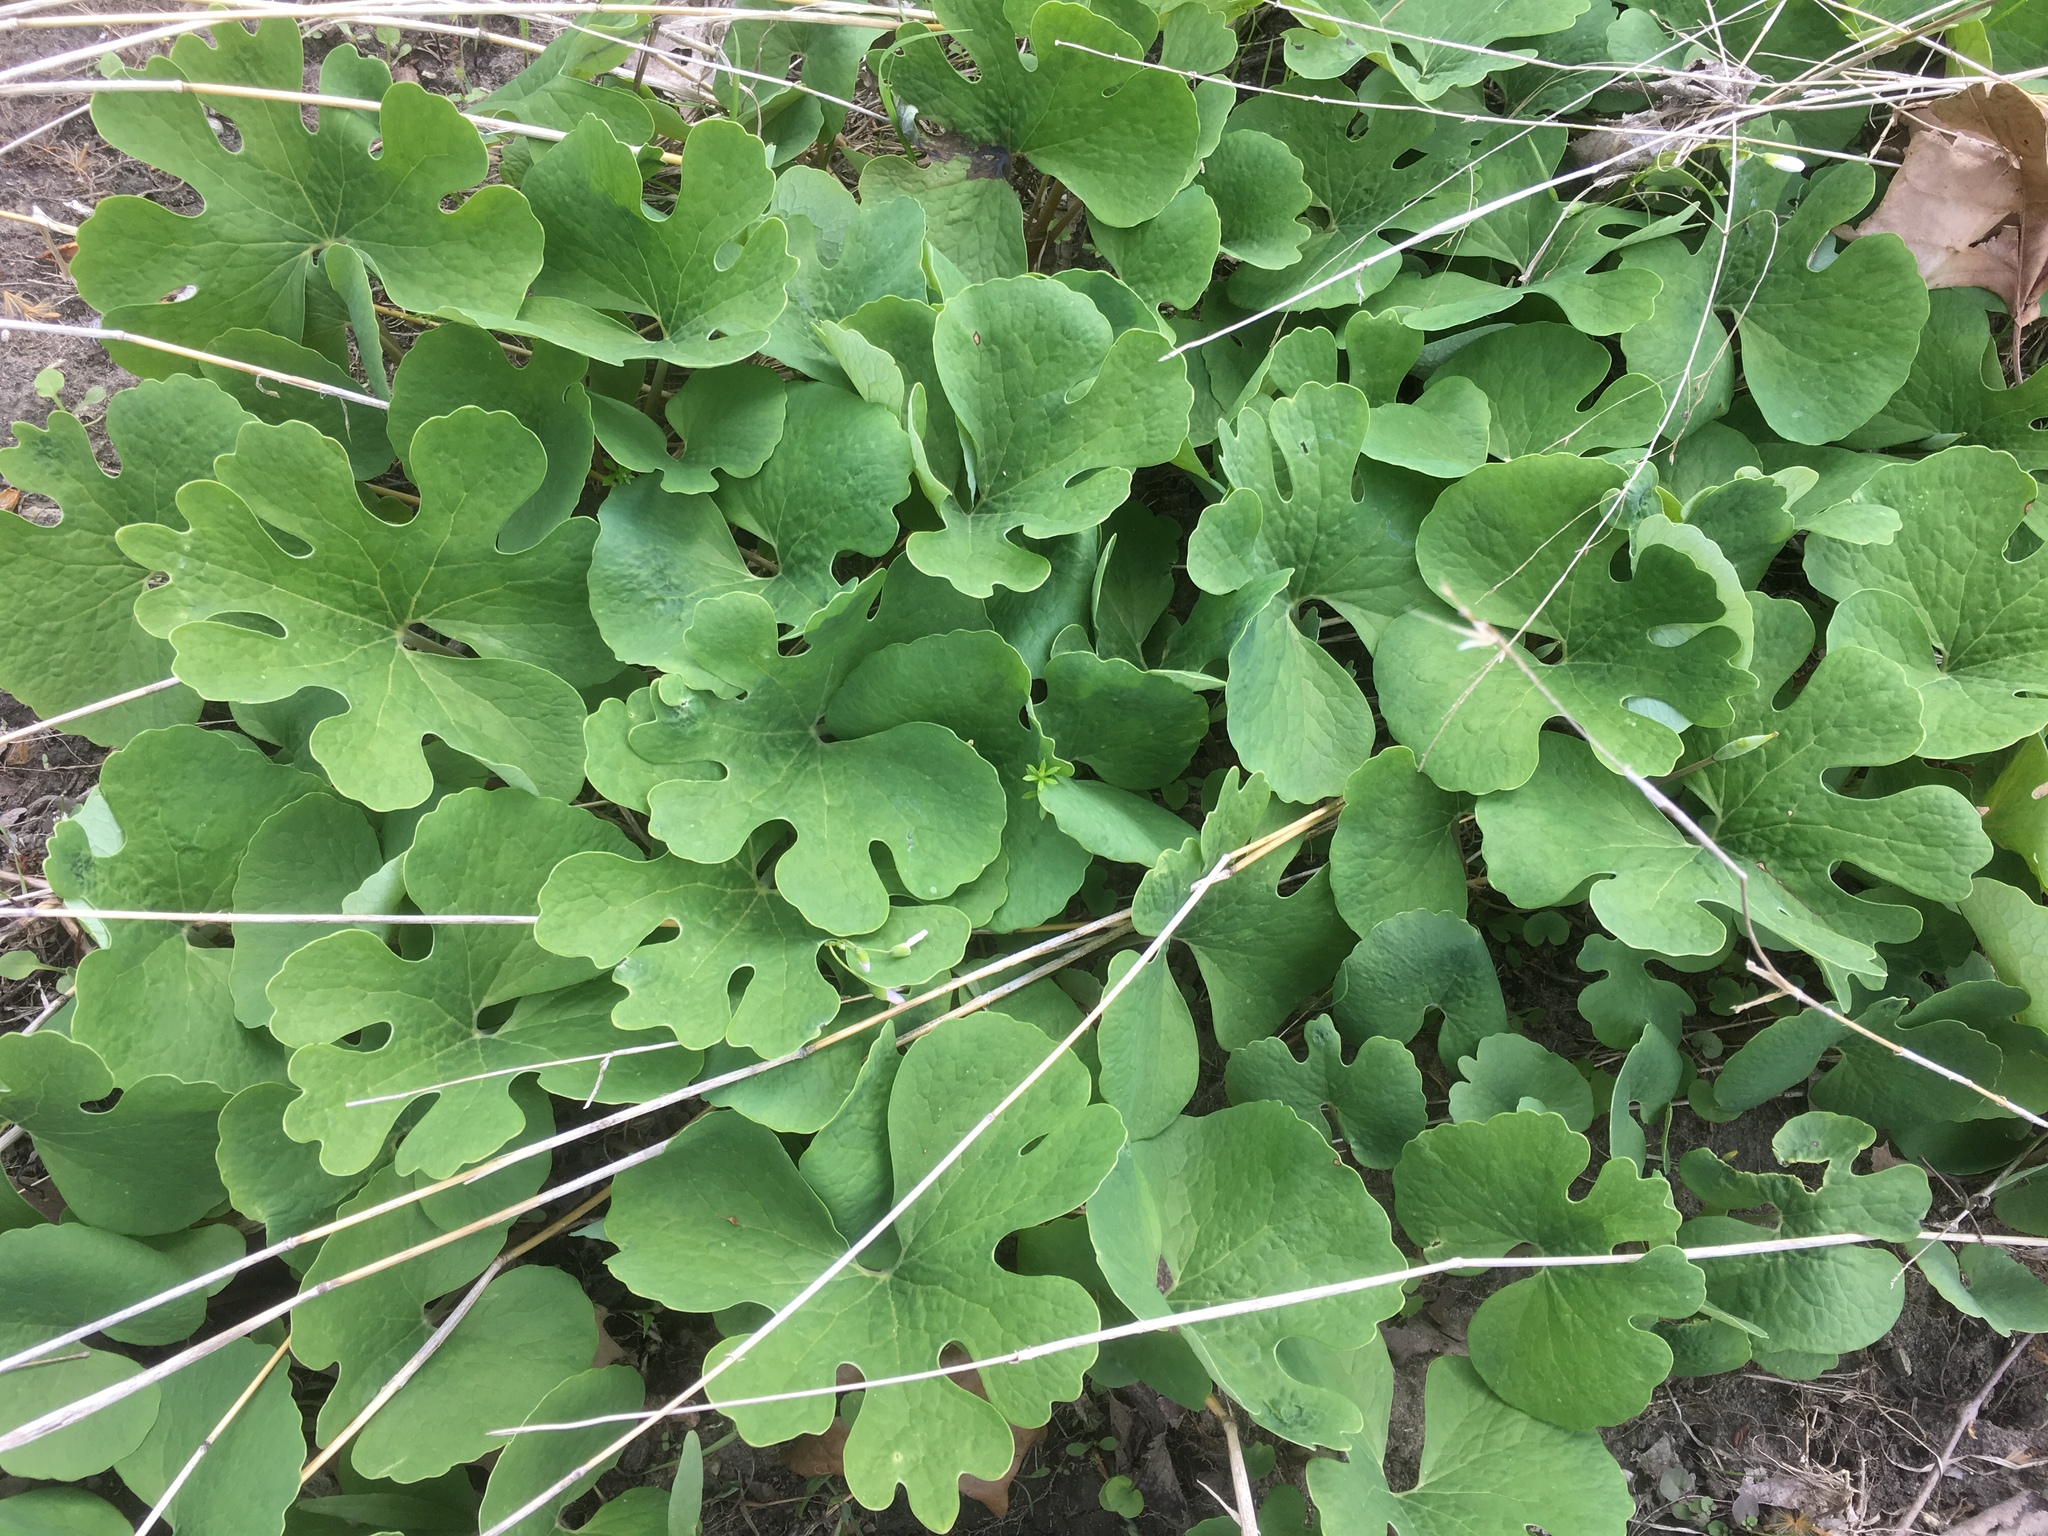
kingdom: Plantae
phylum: Tracheophyta
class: Magnoliopsida
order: Ranunculales
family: Papaveraceae
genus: Sanguinaria
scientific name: Sanguinaria canadensis
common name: Bloodroot
